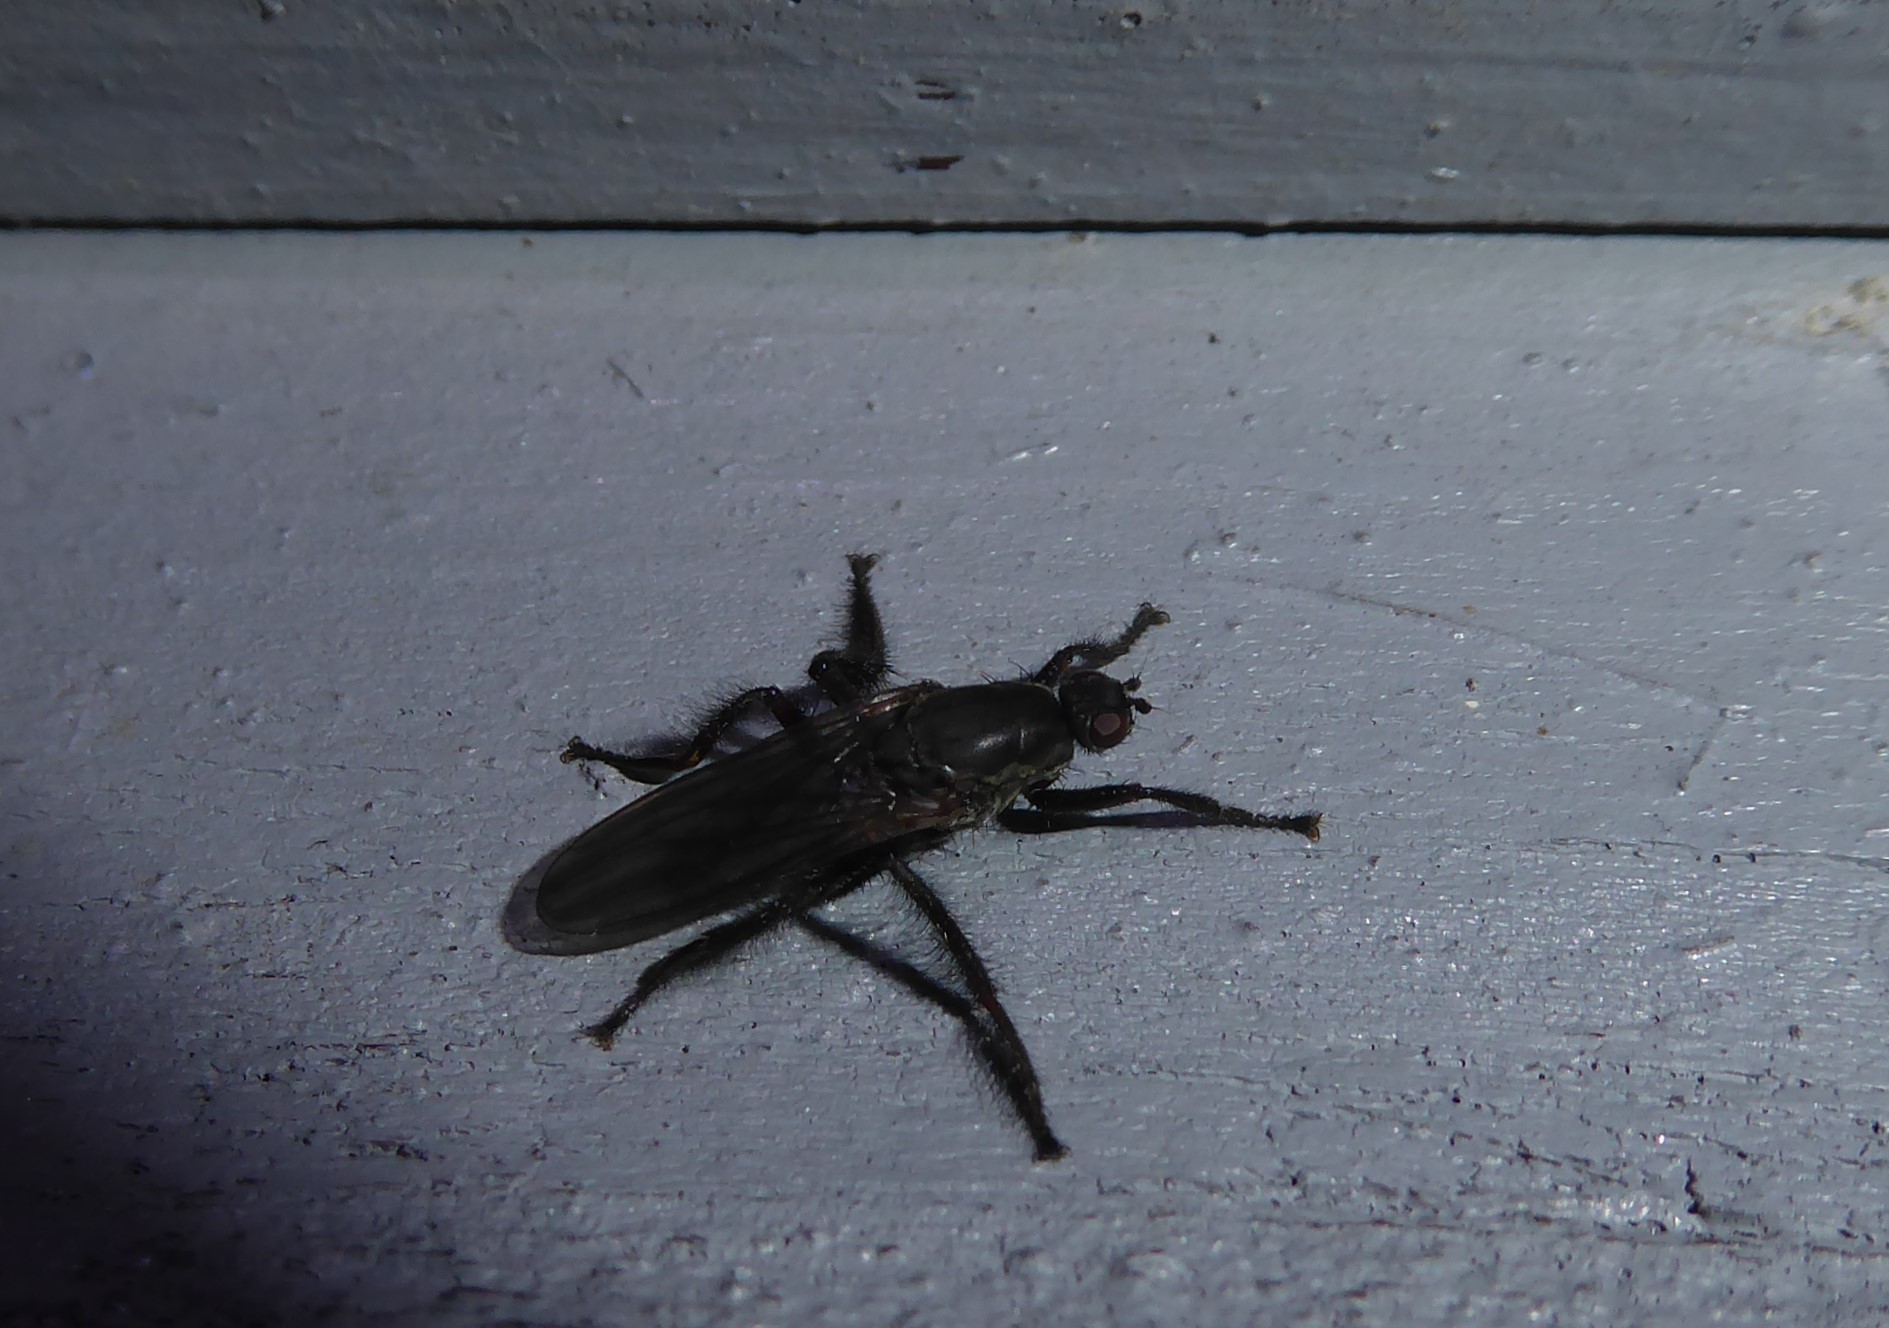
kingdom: Animalia
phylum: Arthropoda
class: Insecta
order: Diptera
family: Coelopidae
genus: Chaetocoelopa
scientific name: Chaetocoelopa littoralis
